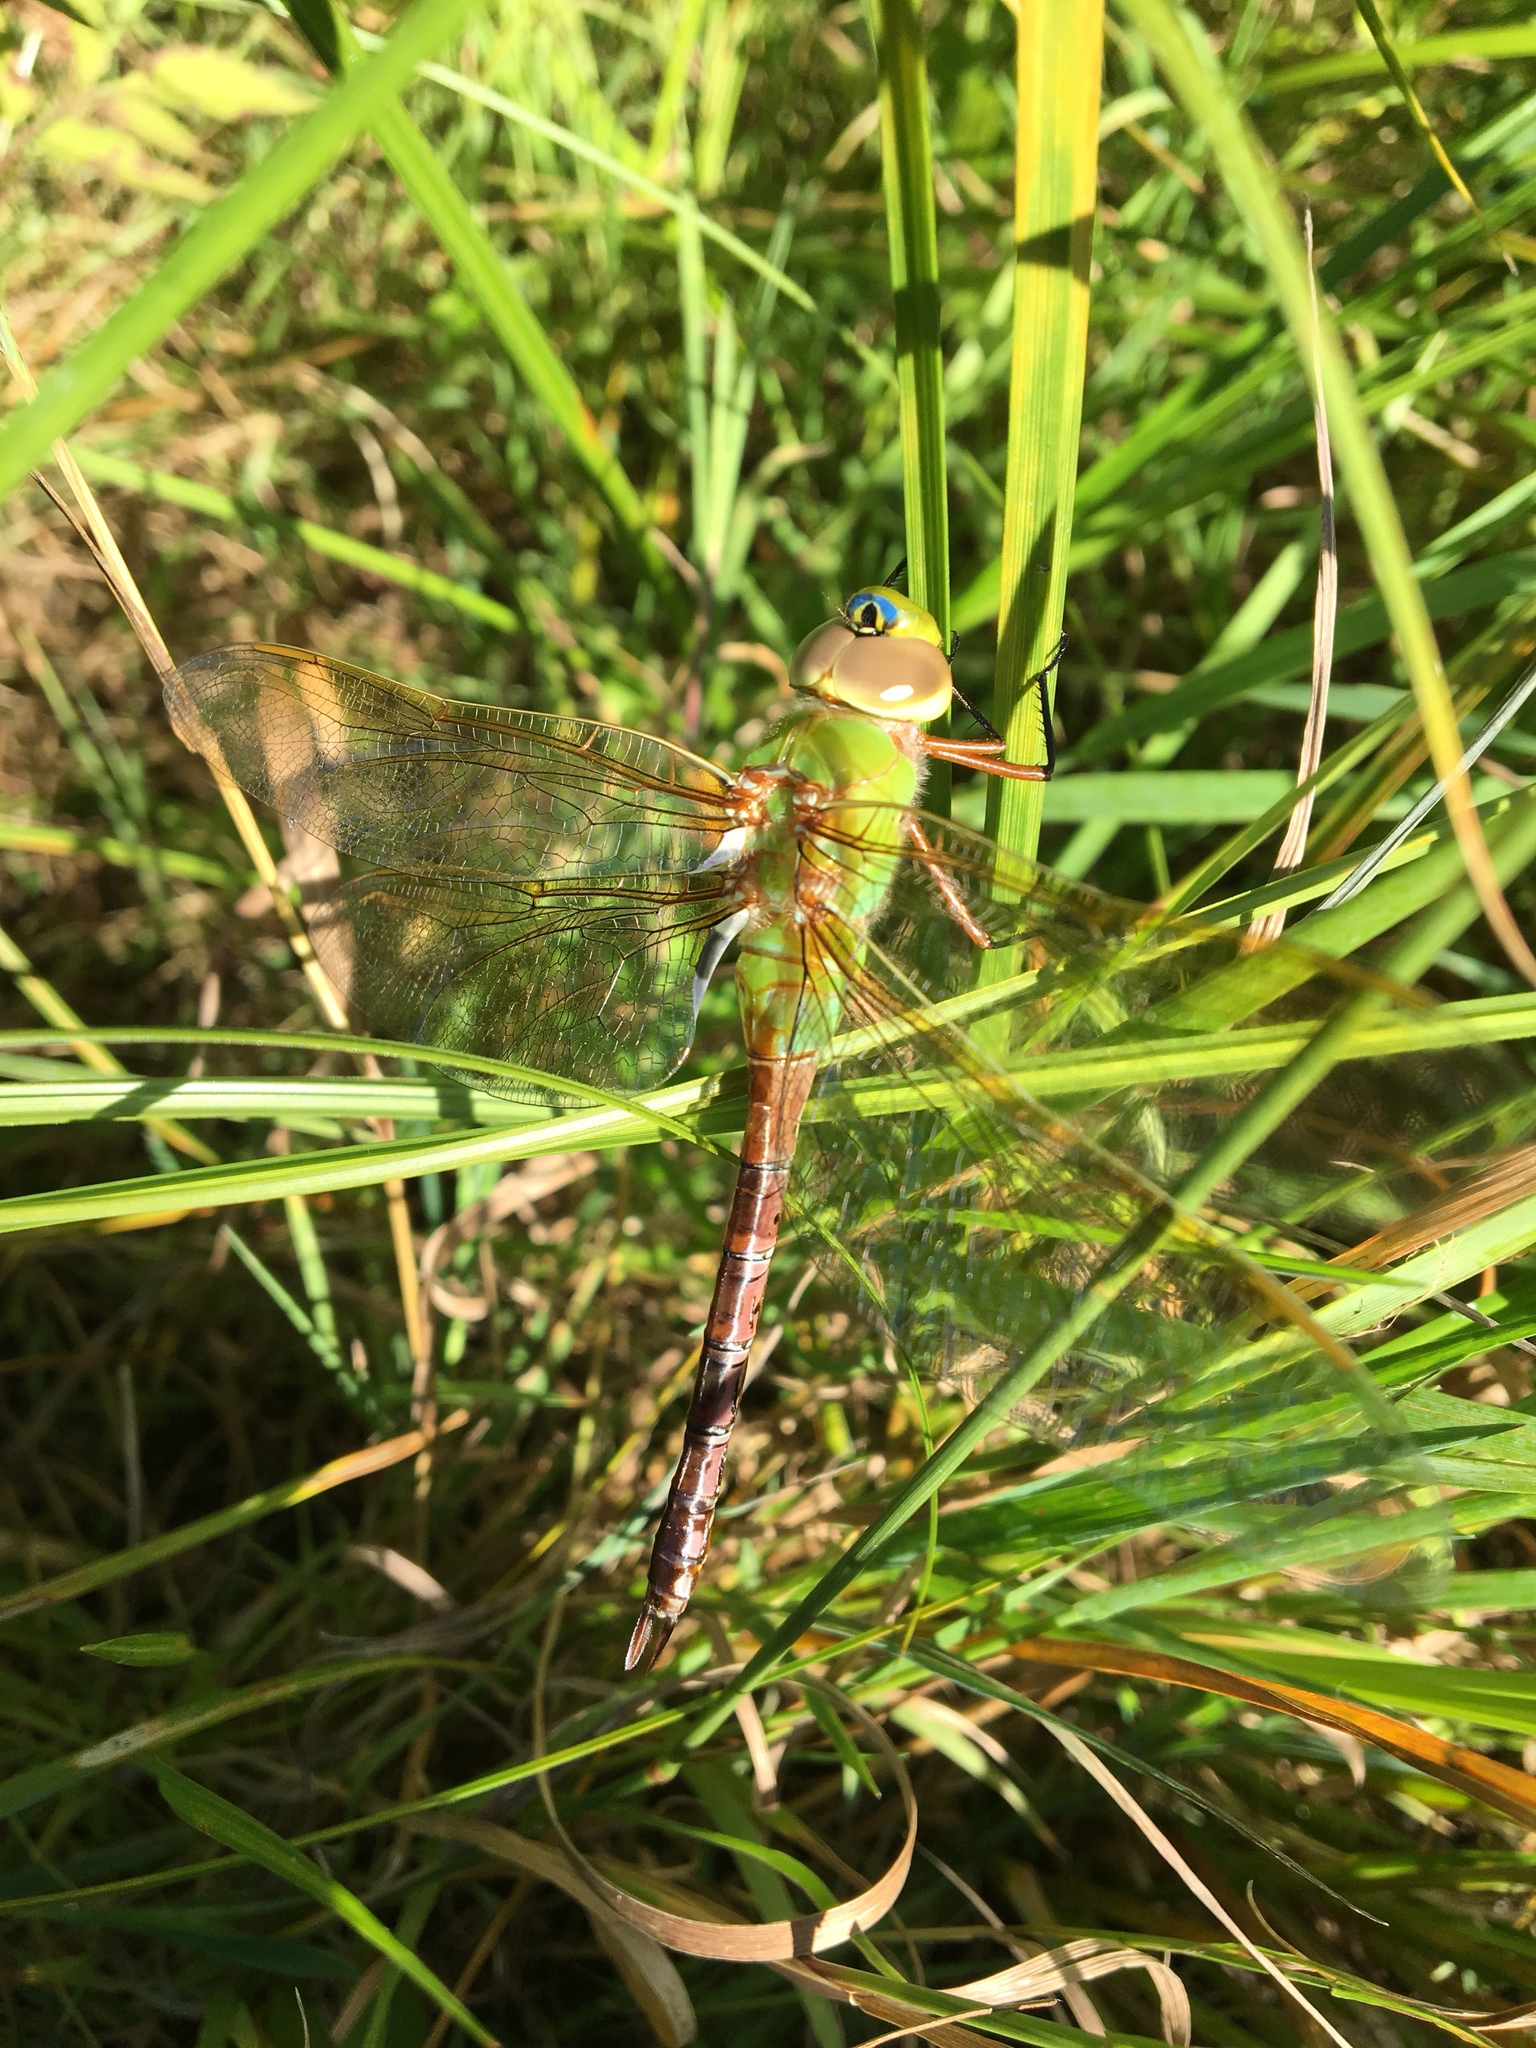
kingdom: Animalia
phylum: Arthropoda
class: Insecta
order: Odonata
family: Aeshnidae
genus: Anax
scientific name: Anax junius
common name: Common green darner
